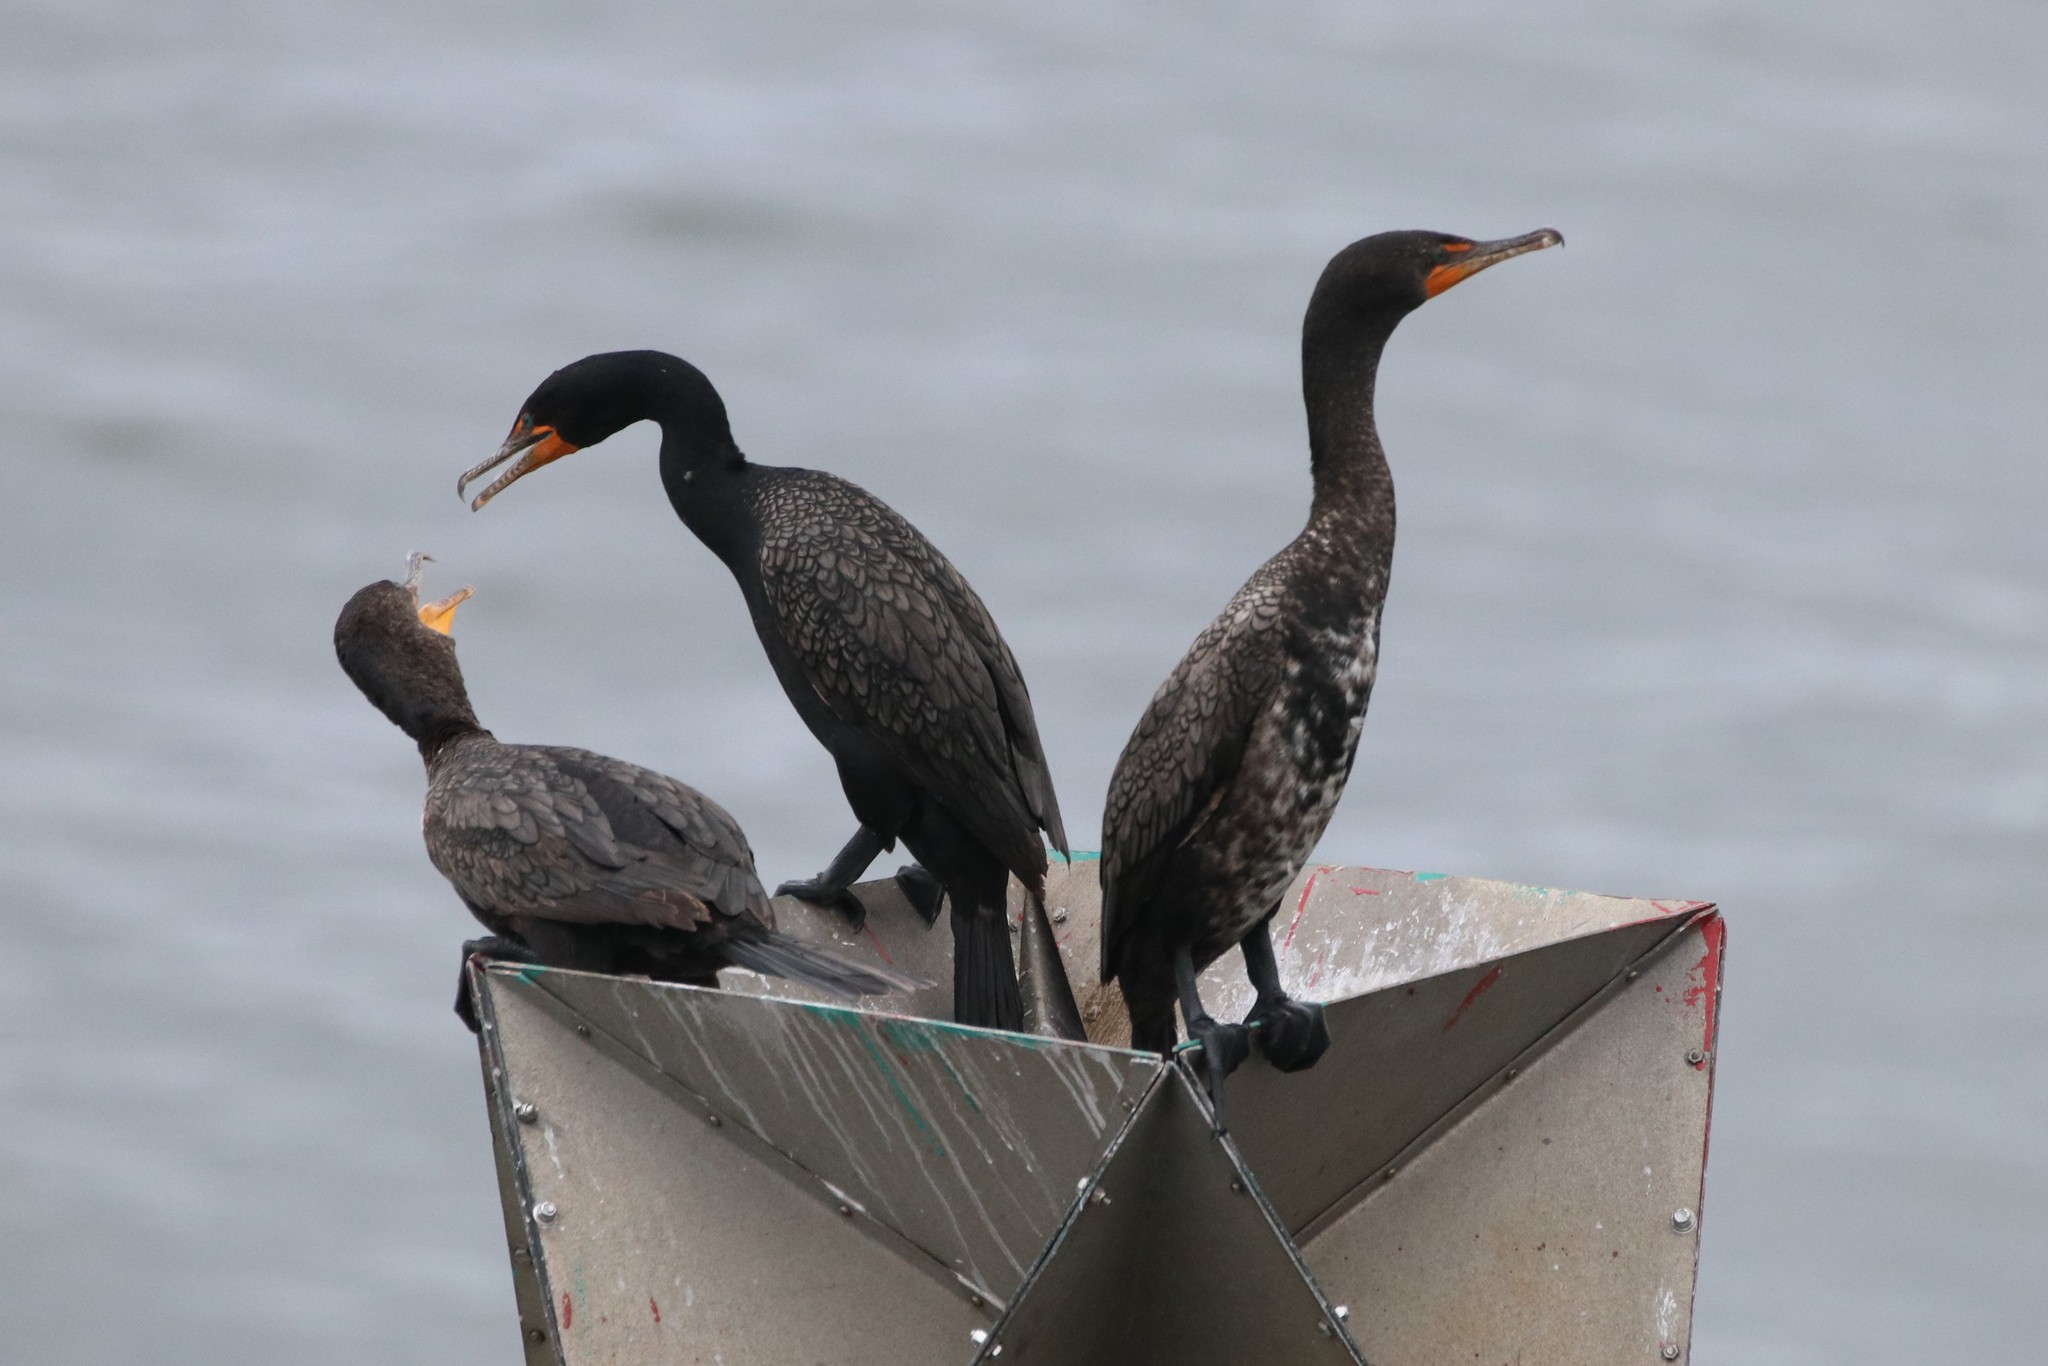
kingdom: Animalia
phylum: Chordata
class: Aves
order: Suliformes
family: Phalacrocoracidae
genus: Phalacrocorax
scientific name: Phalacrocorax auritus
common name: Double-crested cormorant
